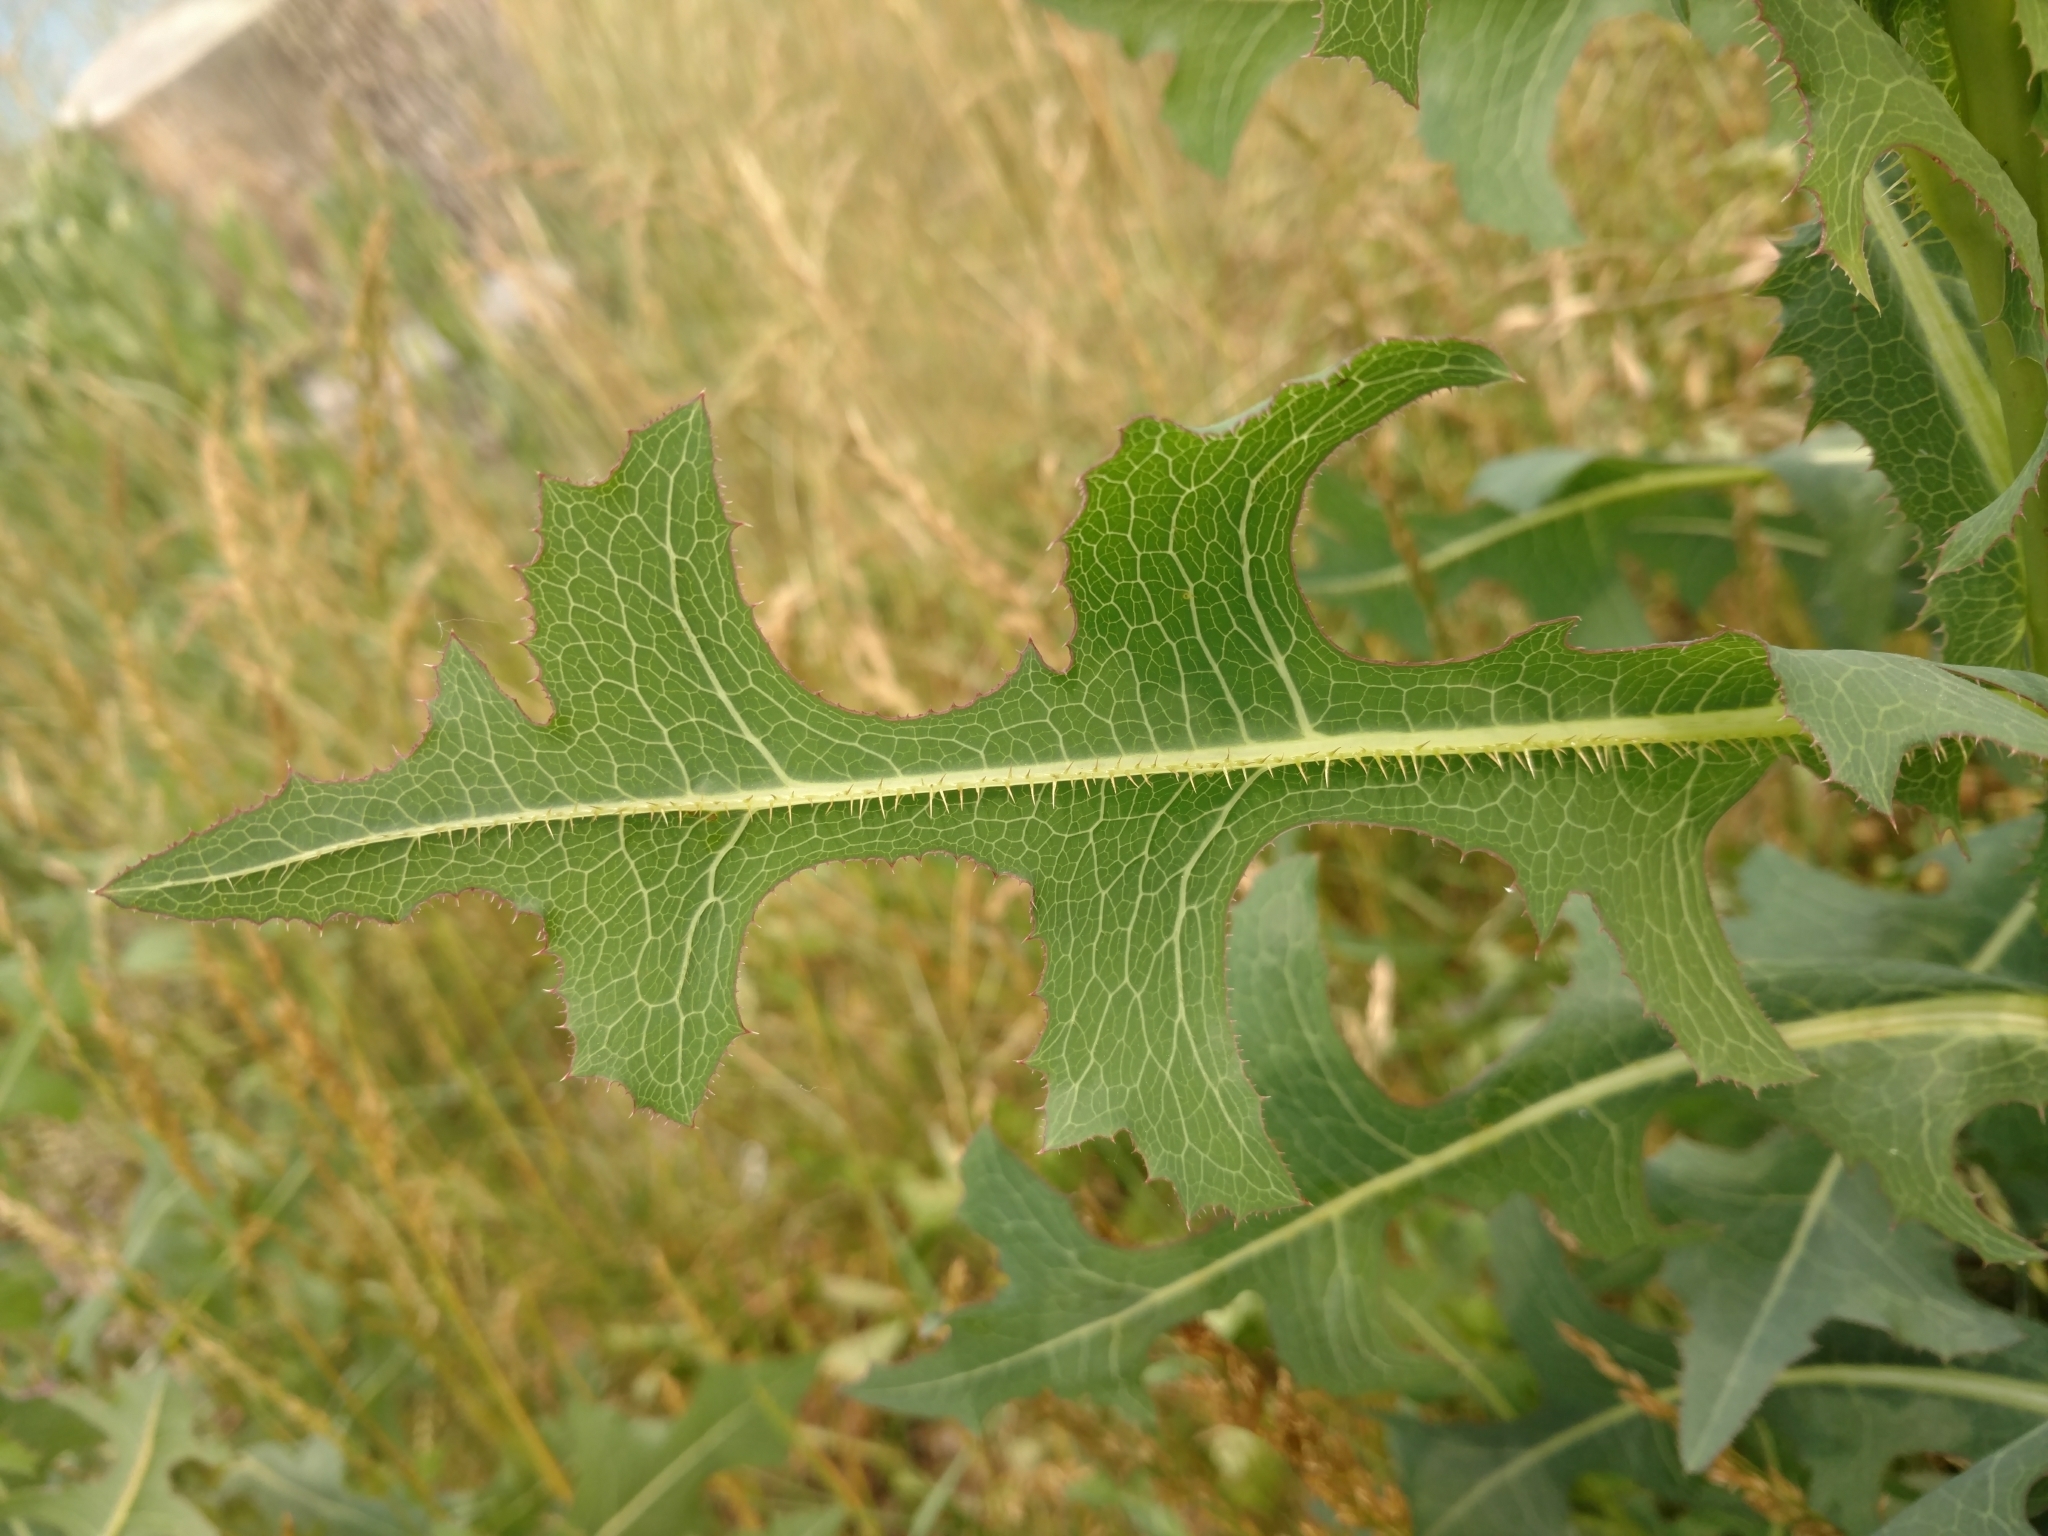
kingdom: Plantae
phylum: Tracheophyta
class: Magnoliopsida
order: Asterales
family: Asteraceae
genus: Lactuca
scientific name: Lactuca serriola
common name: Prickly lettuce
